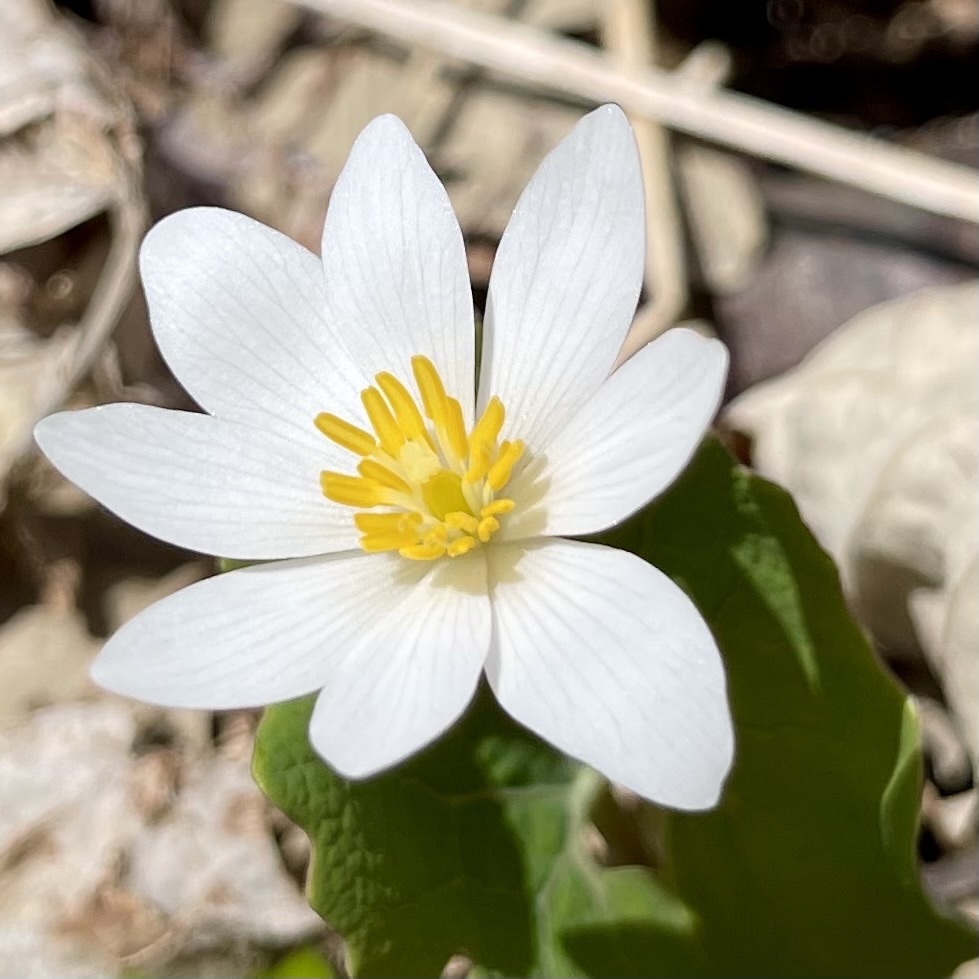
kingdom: Plantae
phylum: Tracheophyta
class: Magnoliopsida
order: Ranunculales
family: Papaveraceae
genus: Sanguinaria
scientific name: Sanguinaria canadensis
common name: Bloodroot
